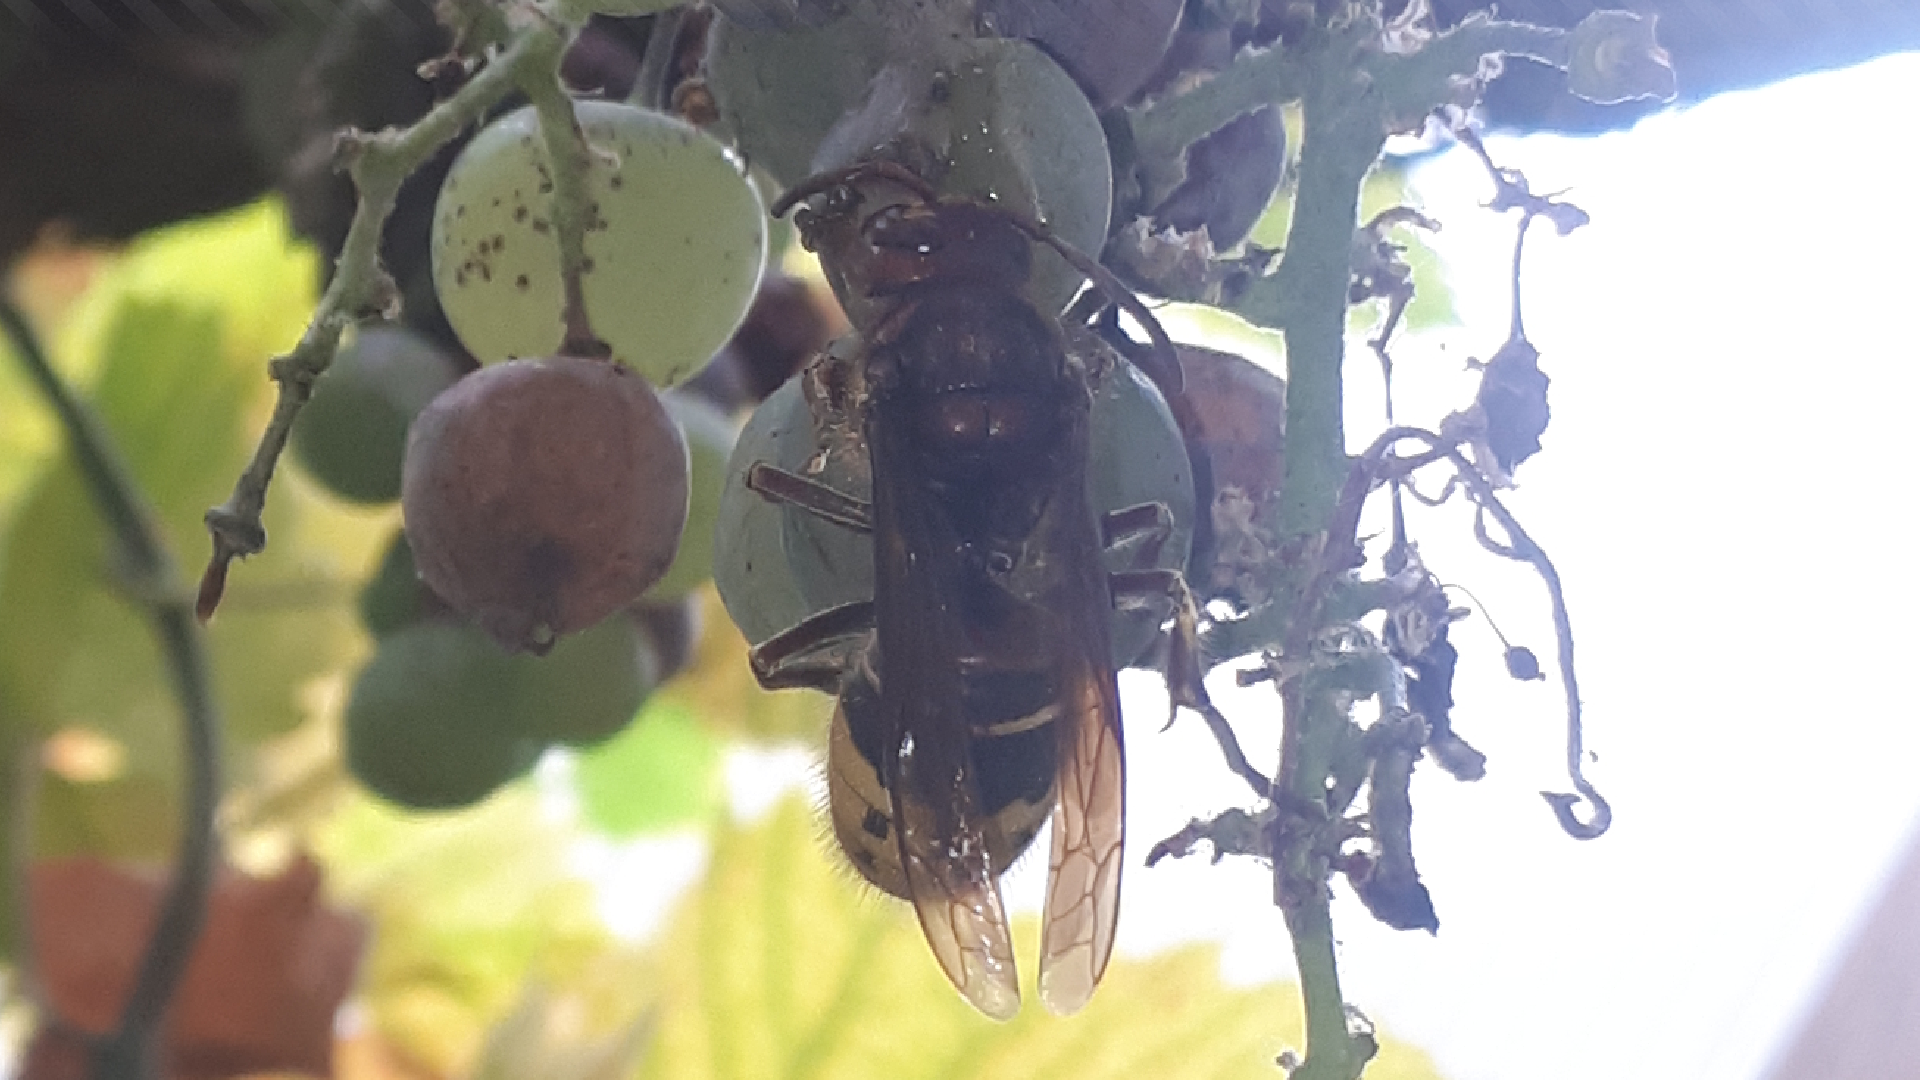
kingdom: Animalia
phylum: Arthropoda
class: Insecta
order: Hymenoptera
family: Vespidae
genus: Vespa
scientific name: Vespa crabro
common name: Hornet
